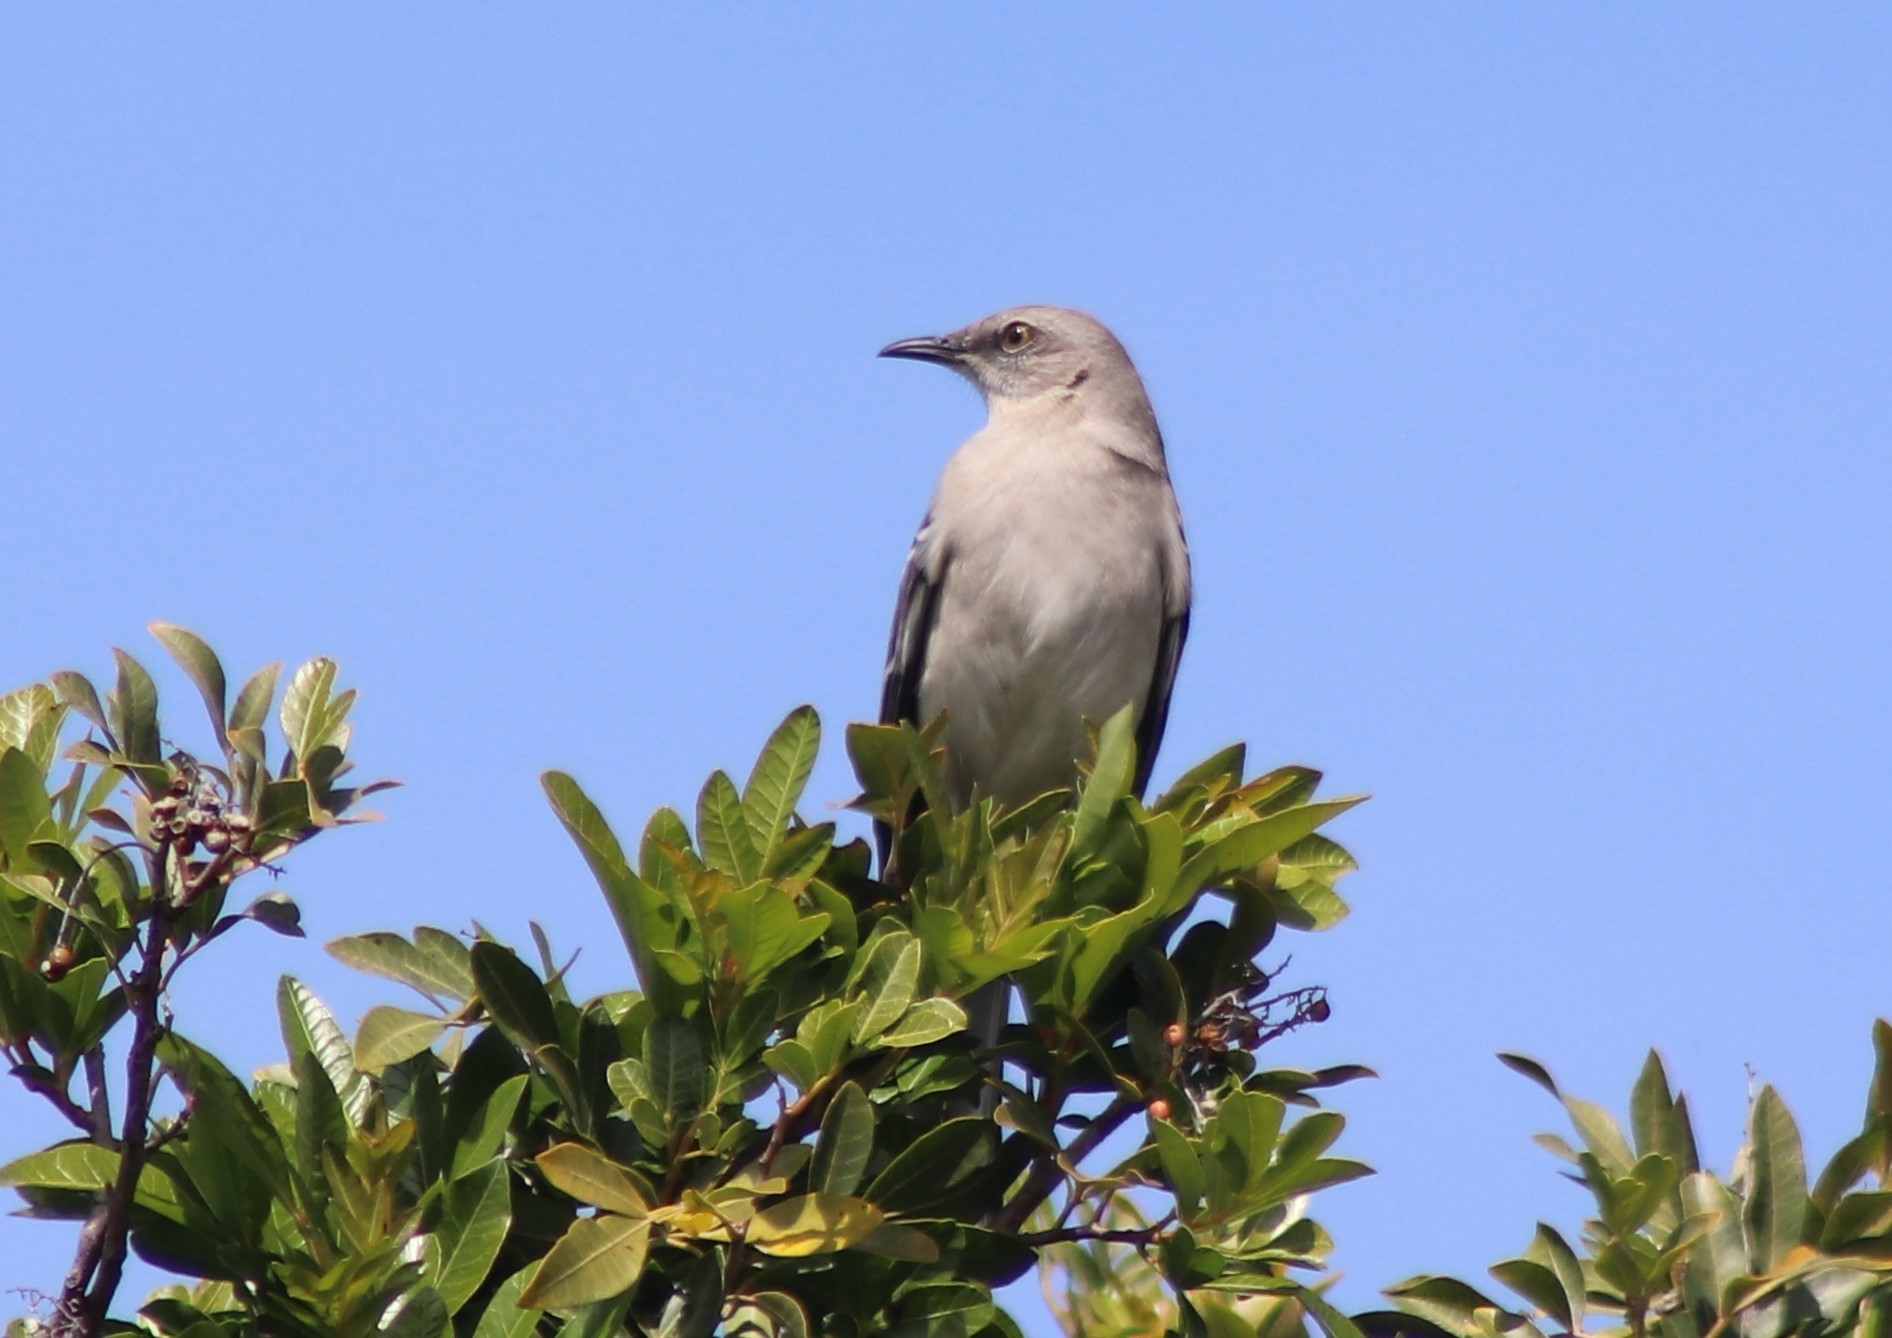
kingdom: Animalia
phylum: Chordata
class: Aves
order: Passeriformes
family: Mimidae
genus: Mimus
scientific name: Mimus polyglottos
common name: Northern mockingbird
